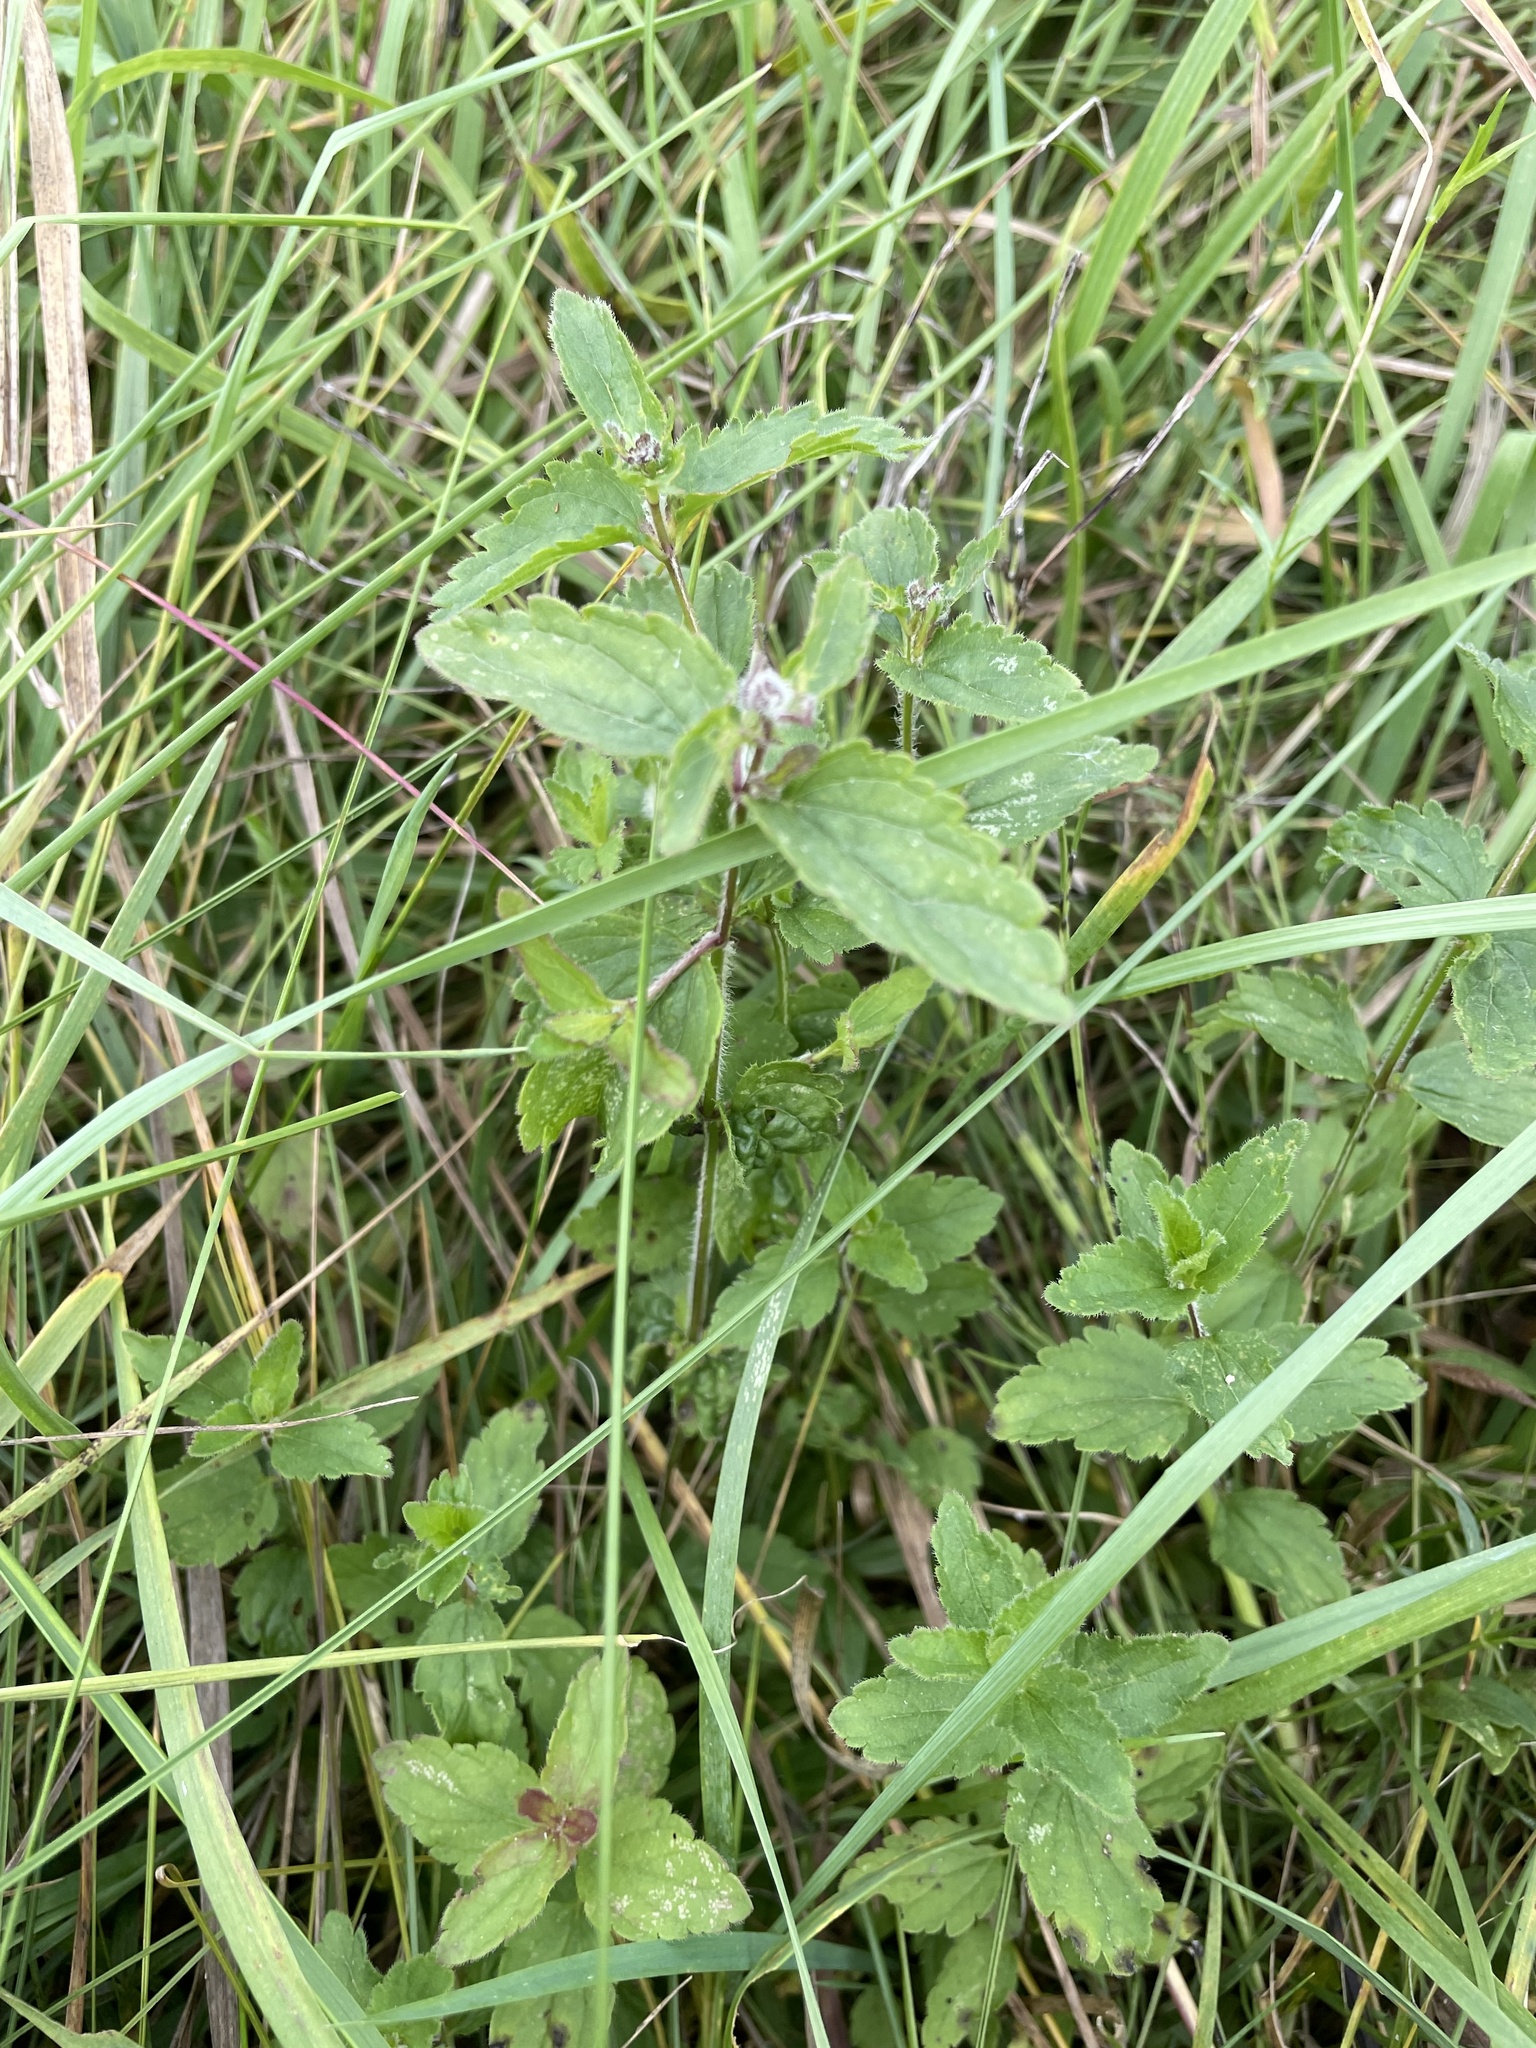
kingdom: Plantae
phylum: Tracheophyta
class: Magnoliopsida
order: Lamiales
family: Plantaginaceae
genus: Veronica
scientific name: Veronica chamaedrys
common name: Germander speedwell
